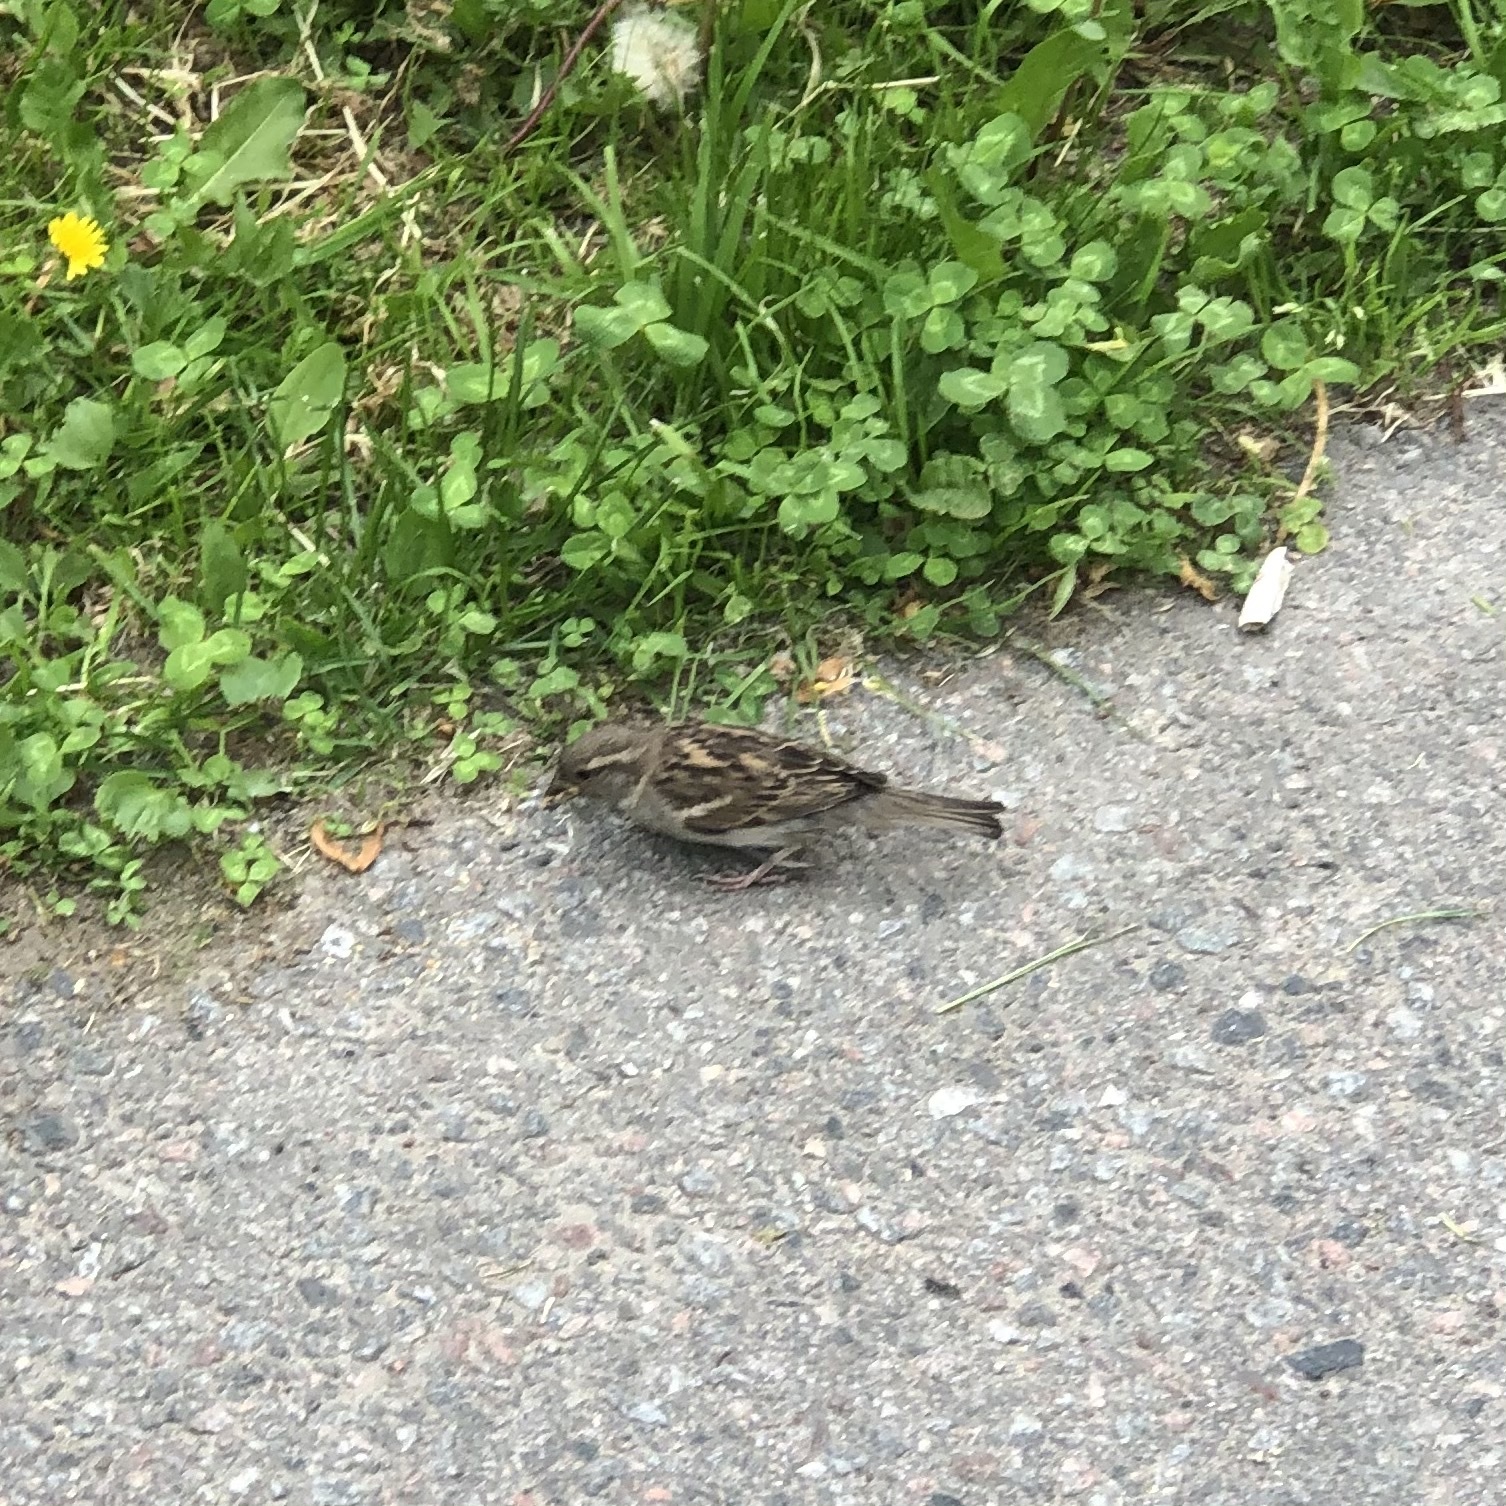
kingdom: Animalia
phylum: Chordata
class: Aves
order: Passeriformes
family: Passeridae
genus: Passer
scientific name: Passer domesticus
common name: House sparrow
